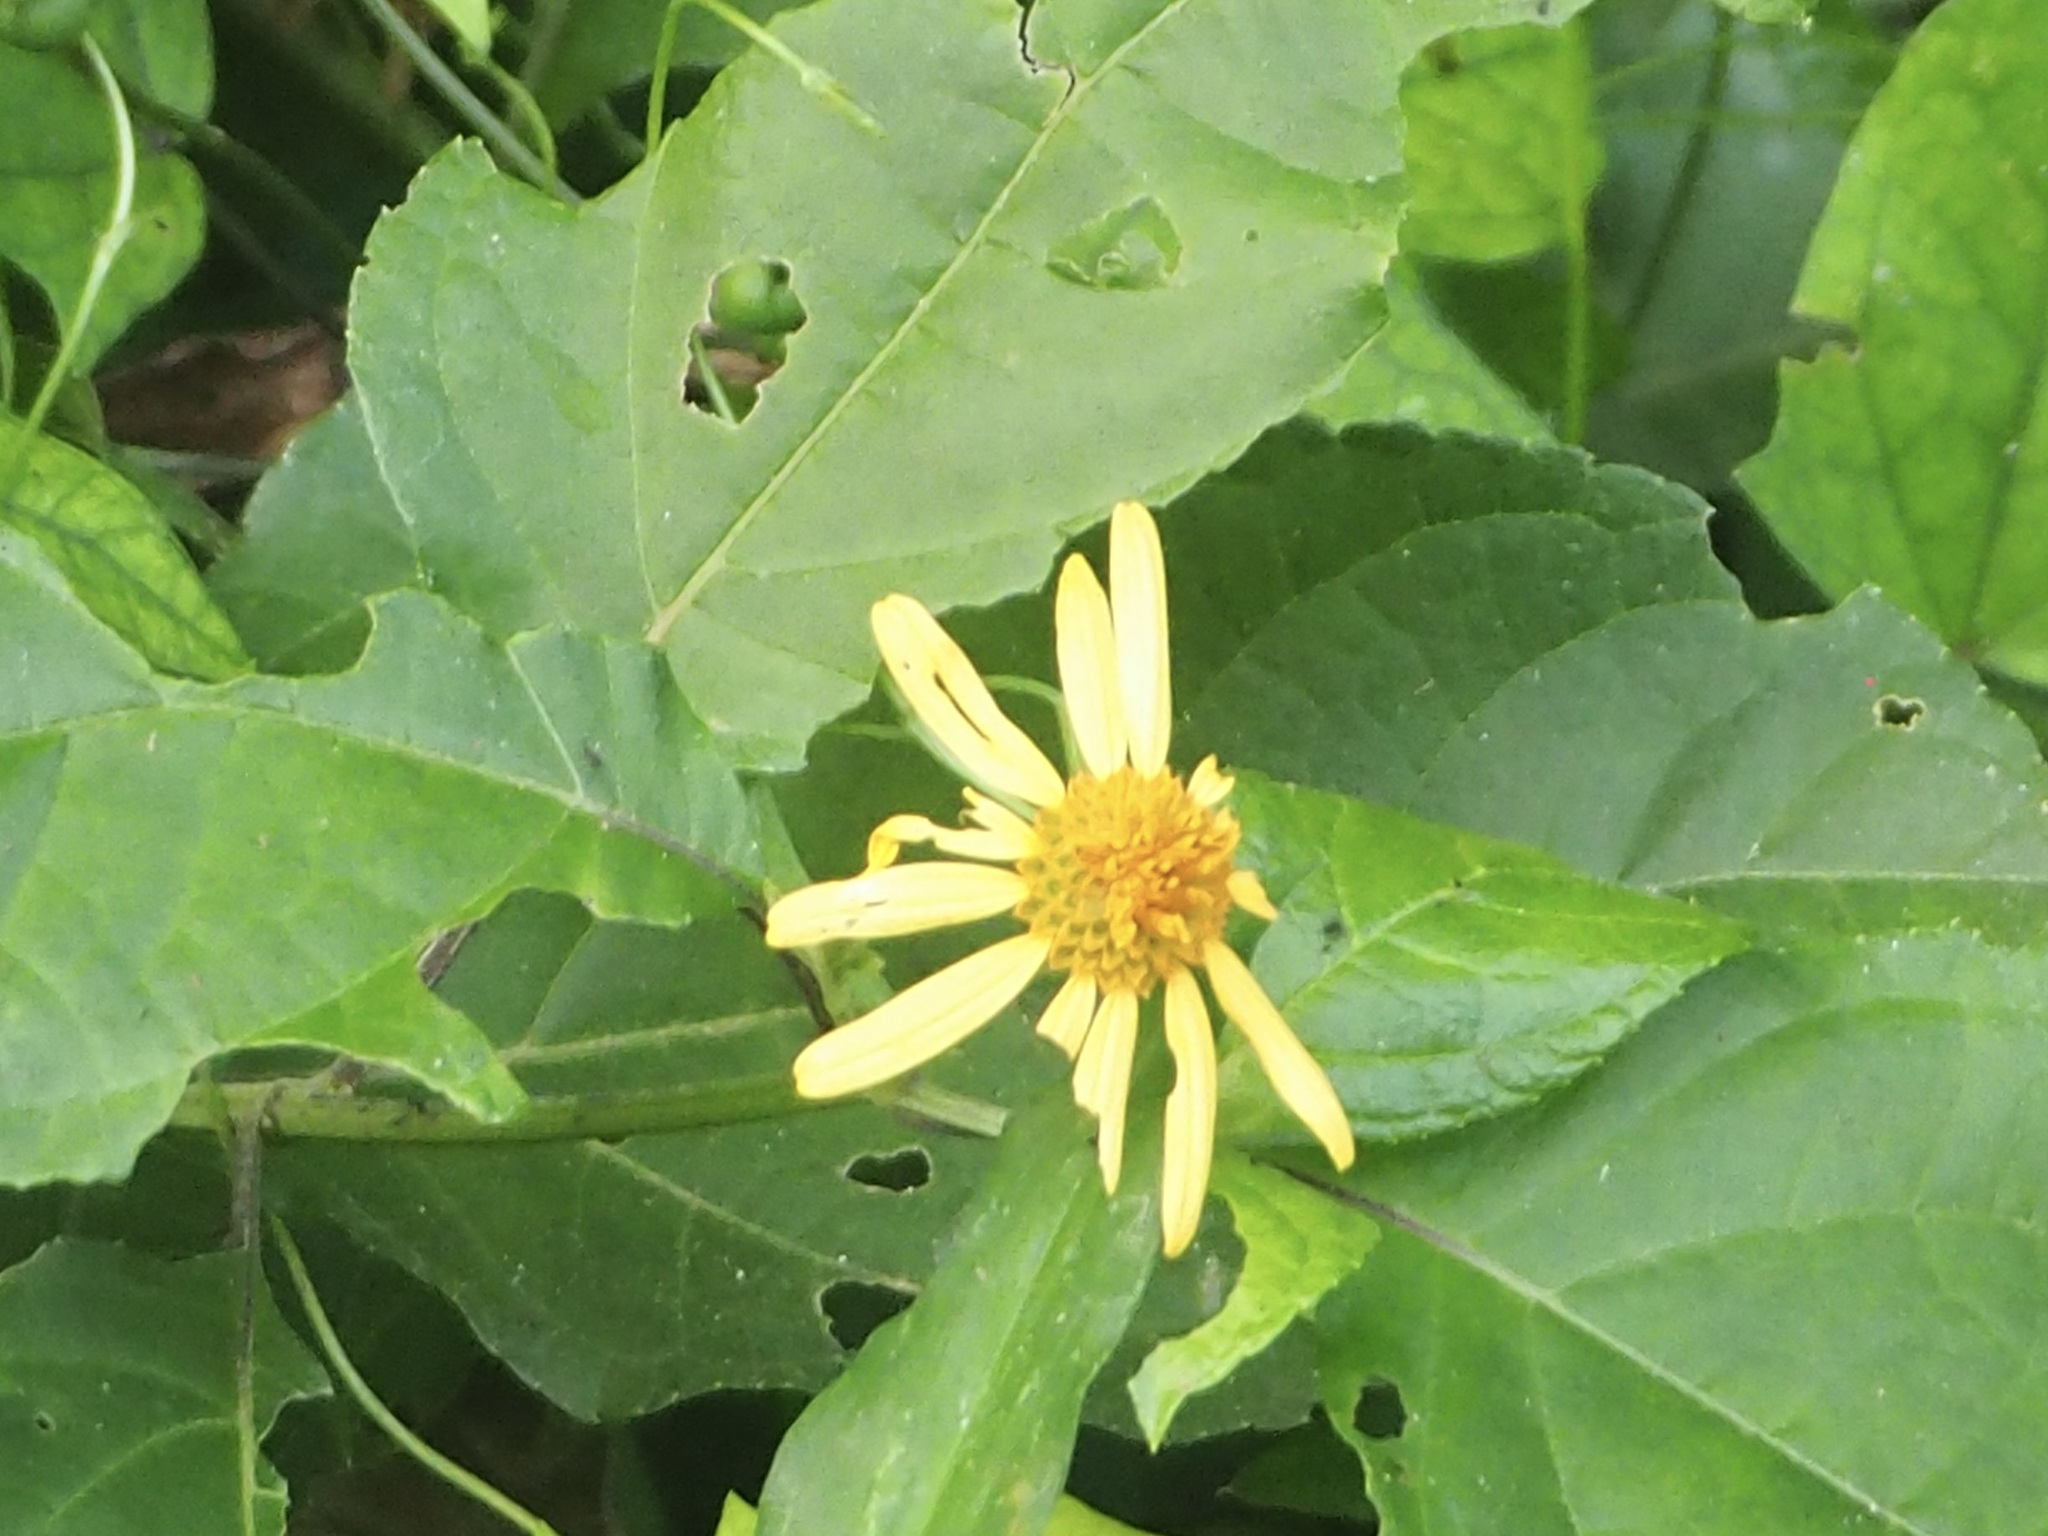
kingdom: Plantae
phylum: Tracheophyta
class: Magnoliopsida
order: Asterales
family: Asteraceae
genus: Tilesia
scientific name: Tilesia baccata
